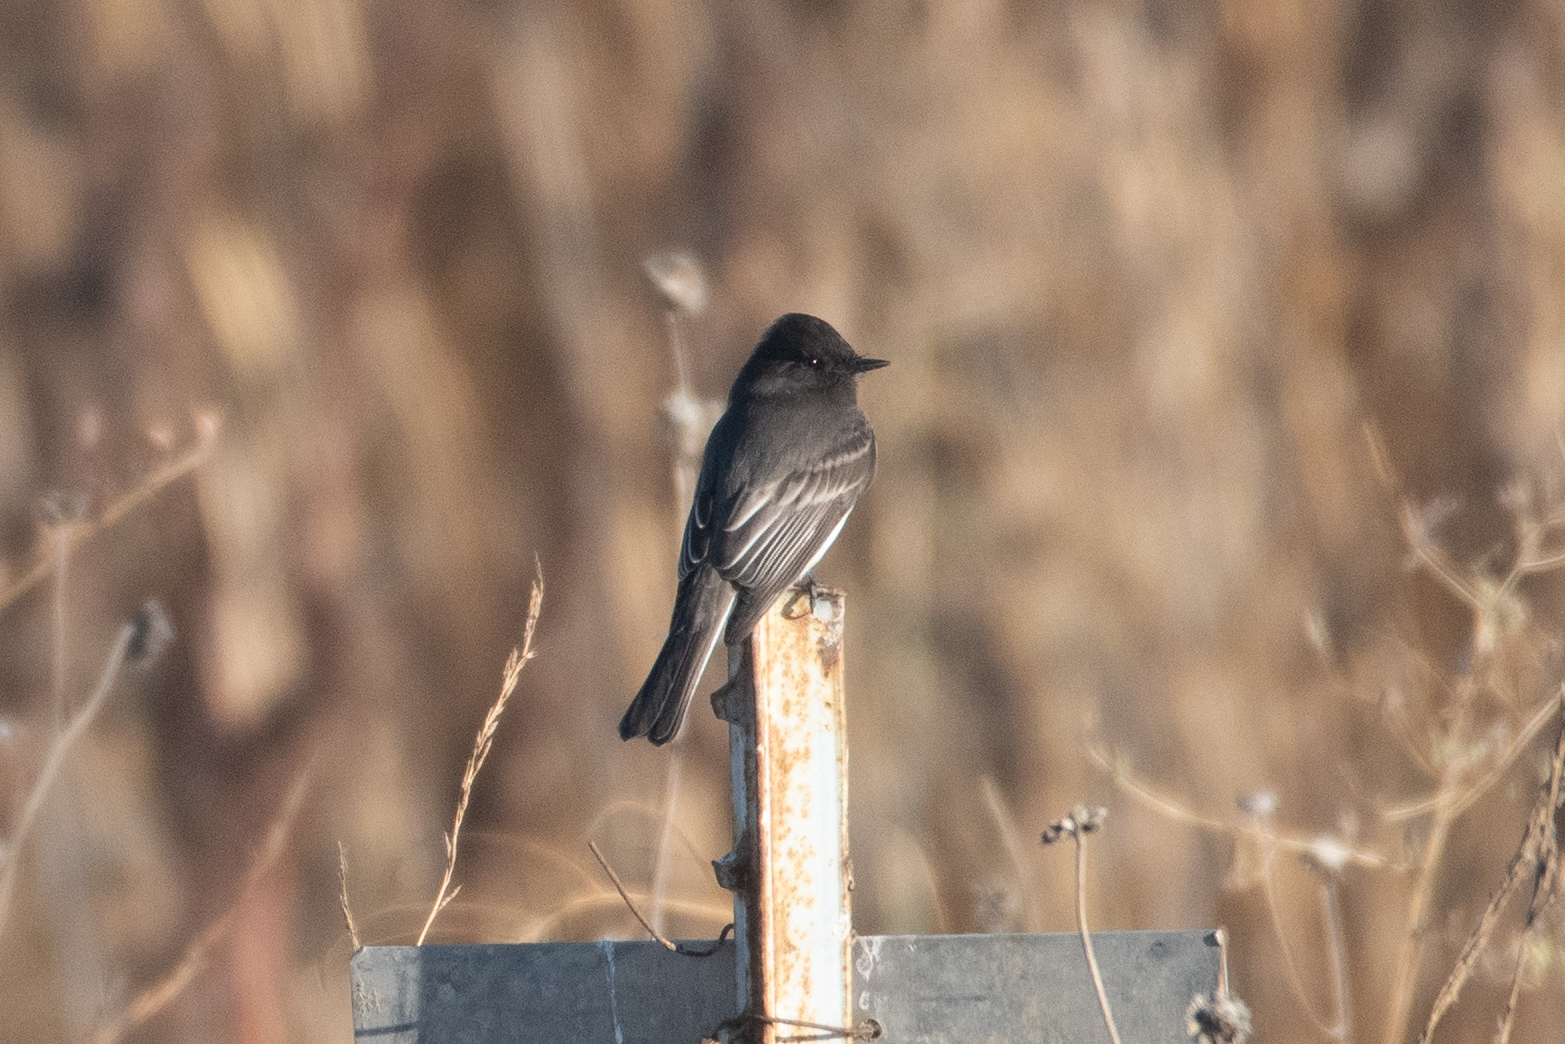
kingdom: Animalia
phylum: Chordata
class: Aves
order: Passeriformes
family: Tyrannidae
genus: Sayornis
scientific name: Sayornis nigricans
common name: Black phoebe
